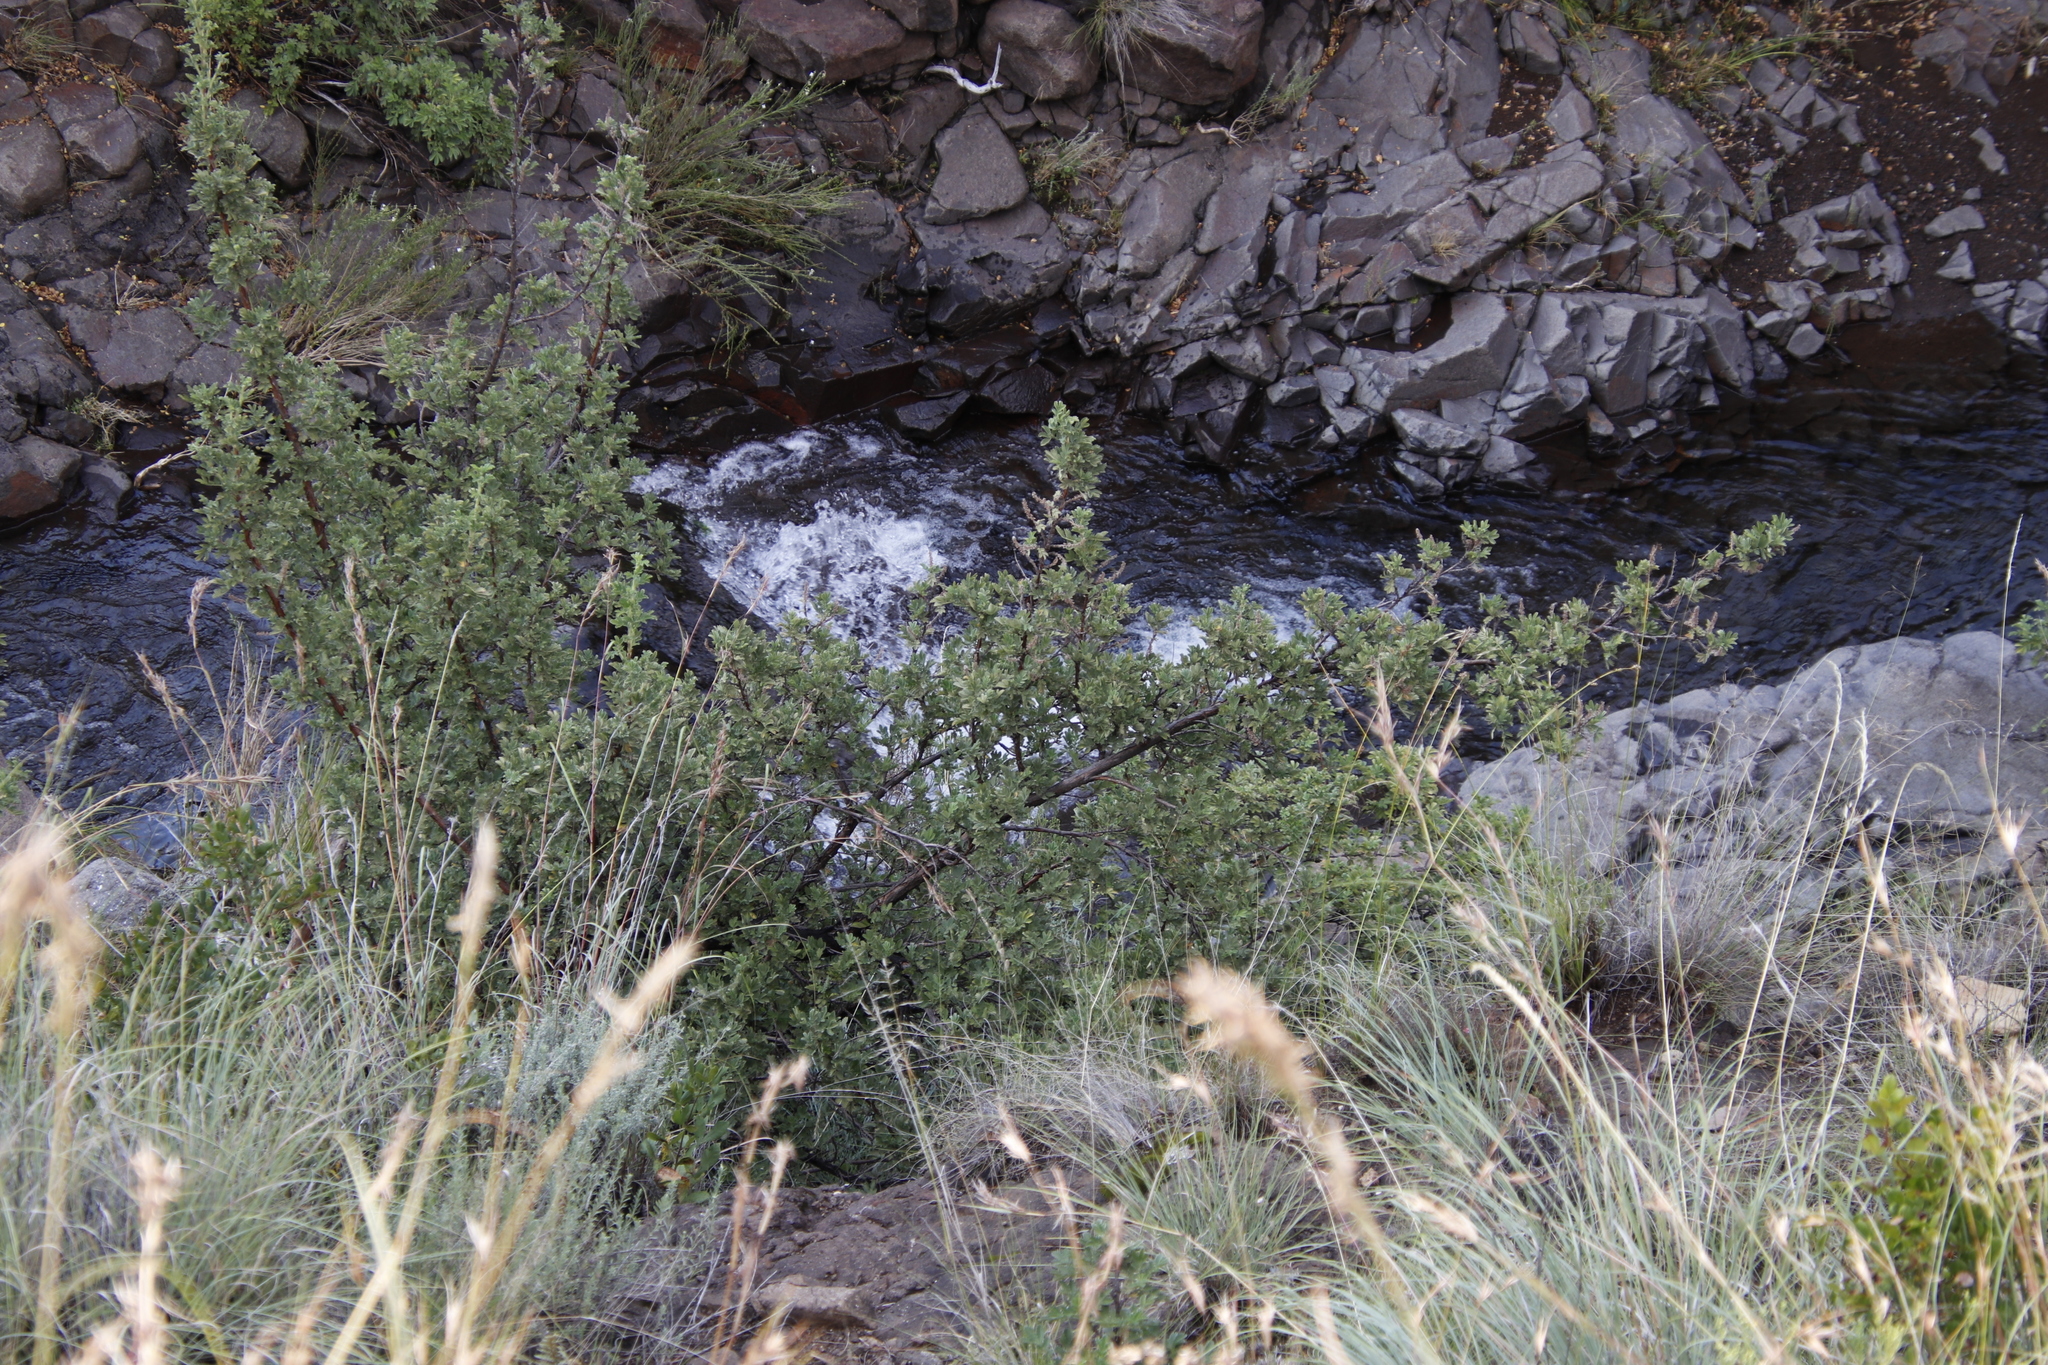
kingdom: Plantae
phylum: Tracheophyta
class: Magnoliopsida
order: Rosales
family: Rosaceae
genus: Leucosidea
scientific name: Leucosidea sericea
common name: Oldwood
